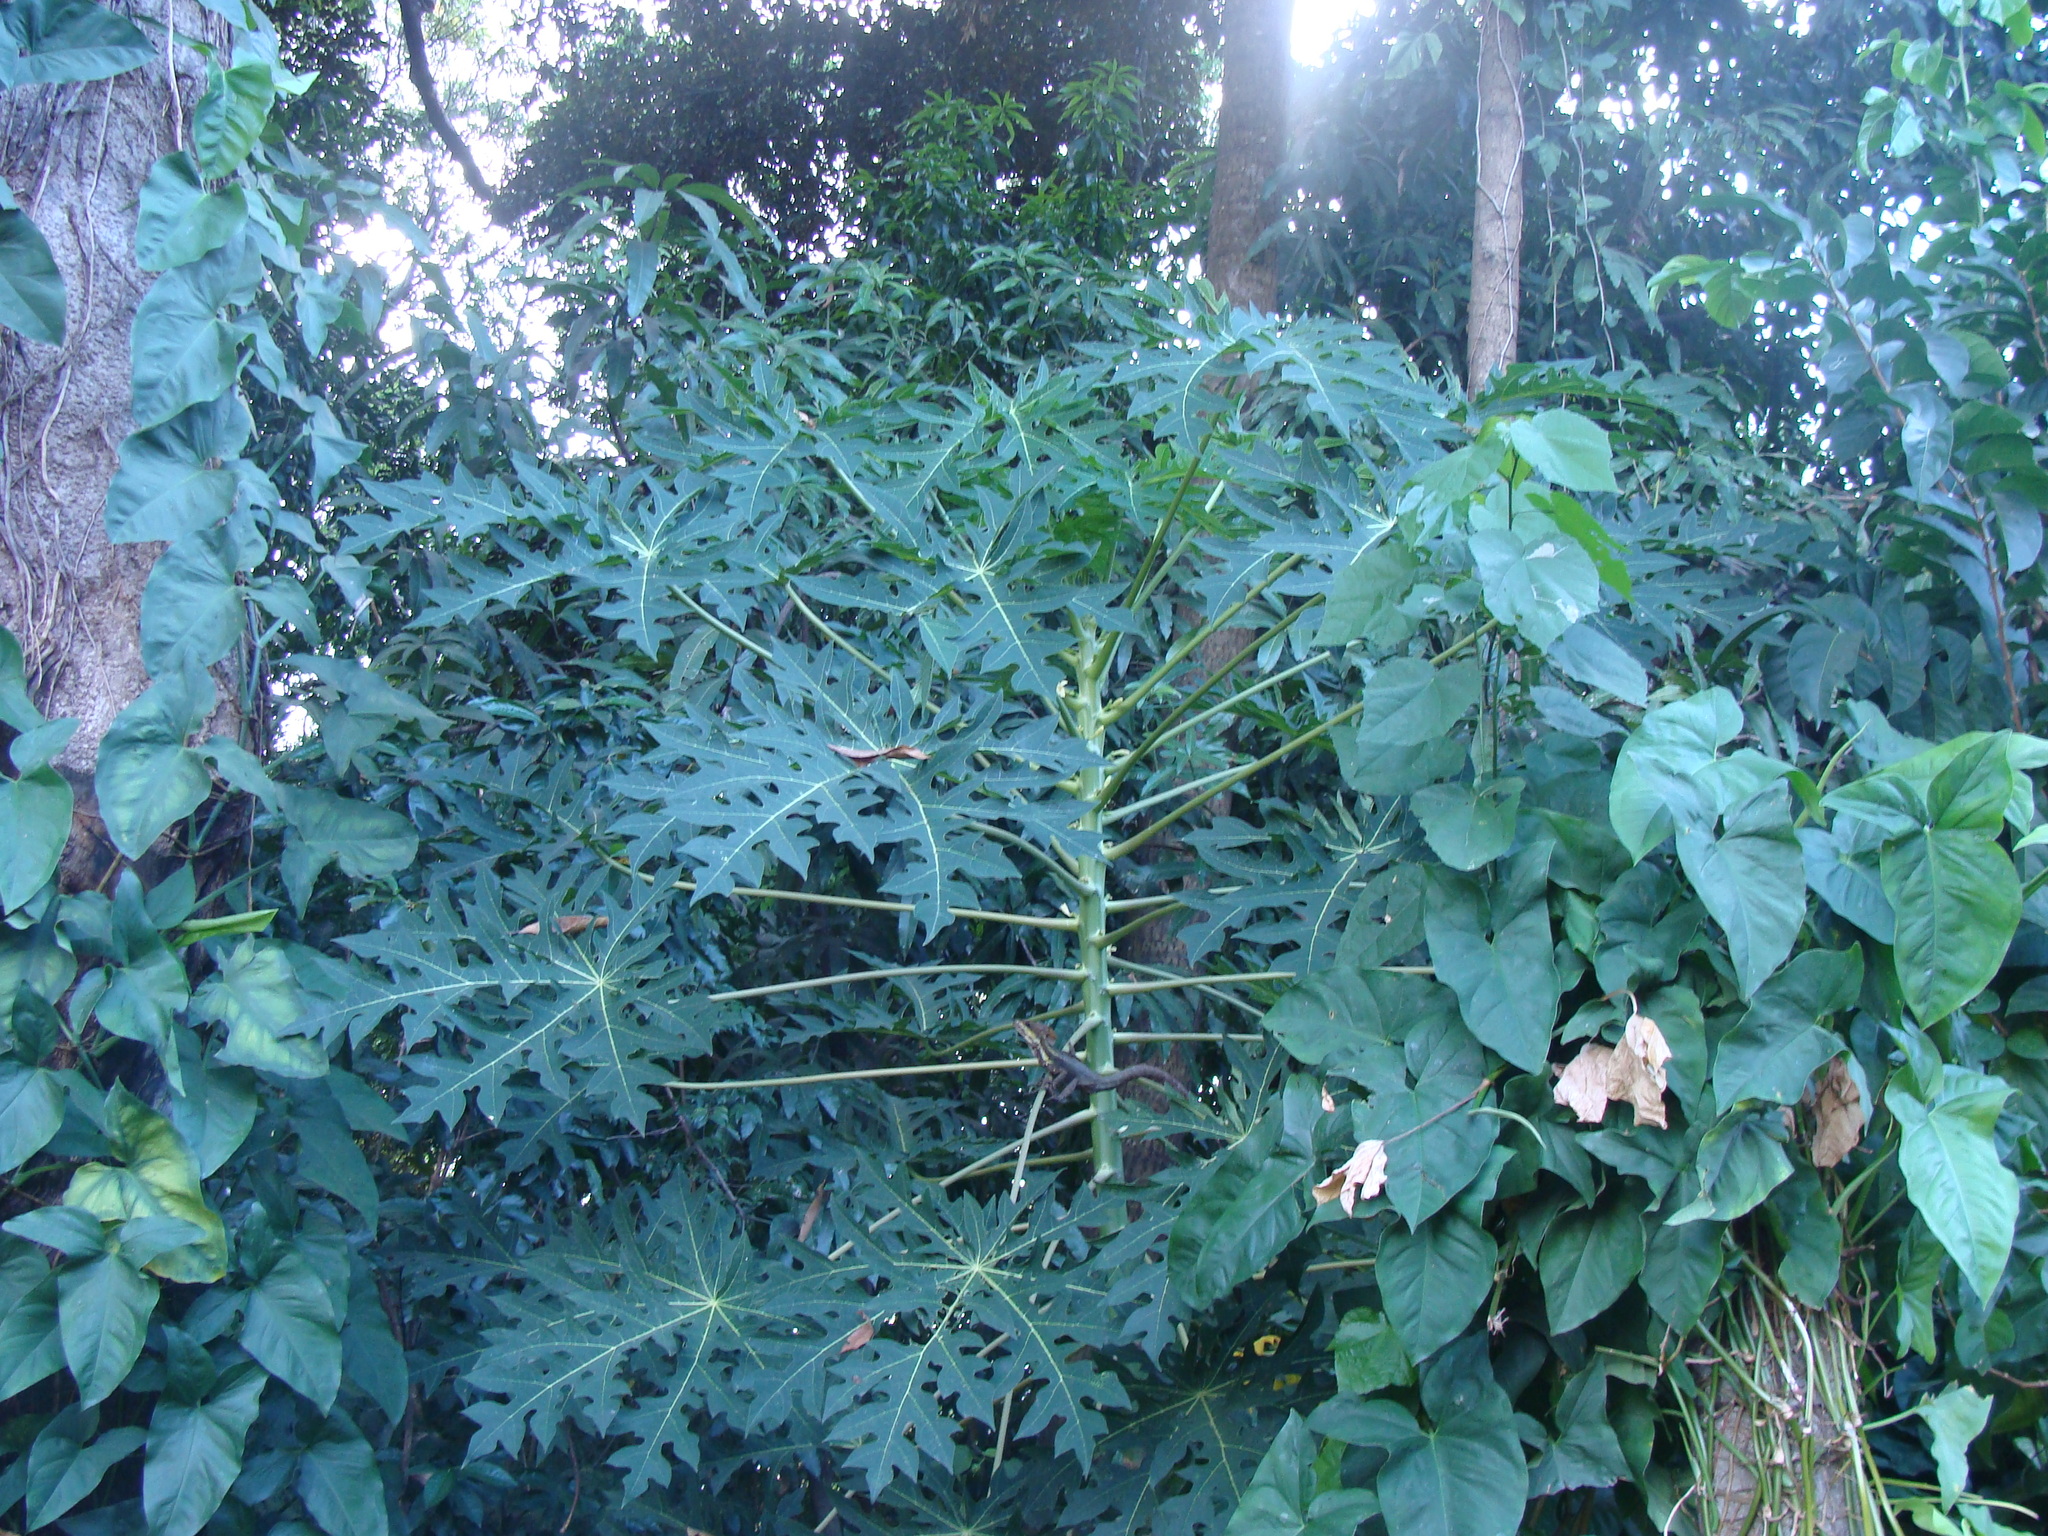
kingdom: Plantae
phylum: Tracheophyta
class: Magnoliopsida
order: Brassicales
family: Caricaceae
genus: Carica
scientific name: Carica papaya
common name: Papaya
